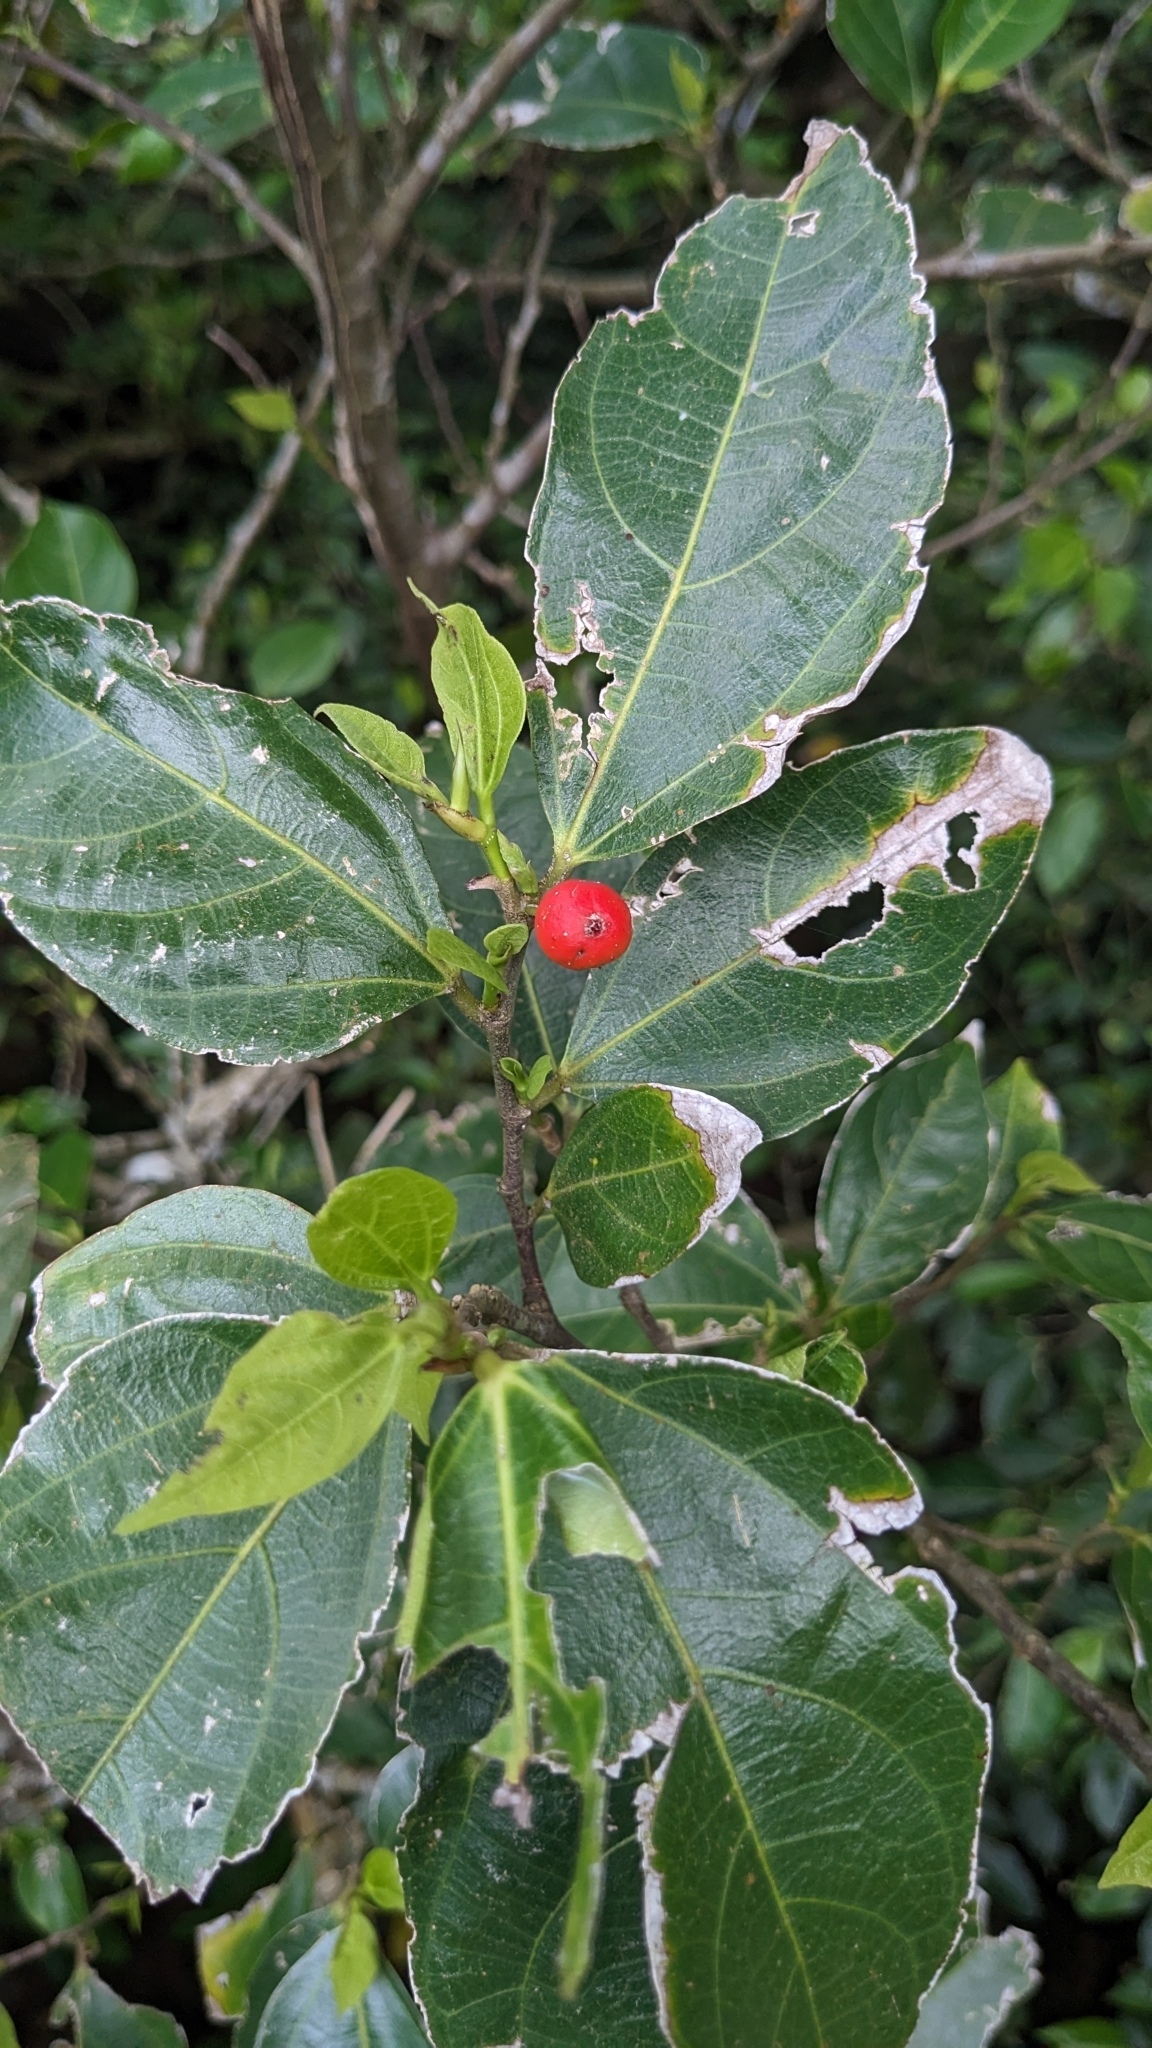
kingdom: Plantae
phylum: Tracheophyta
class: Magnoliopsida
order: Rosales
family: Moraceae
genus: Ficus
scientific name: Ficus ampelos
